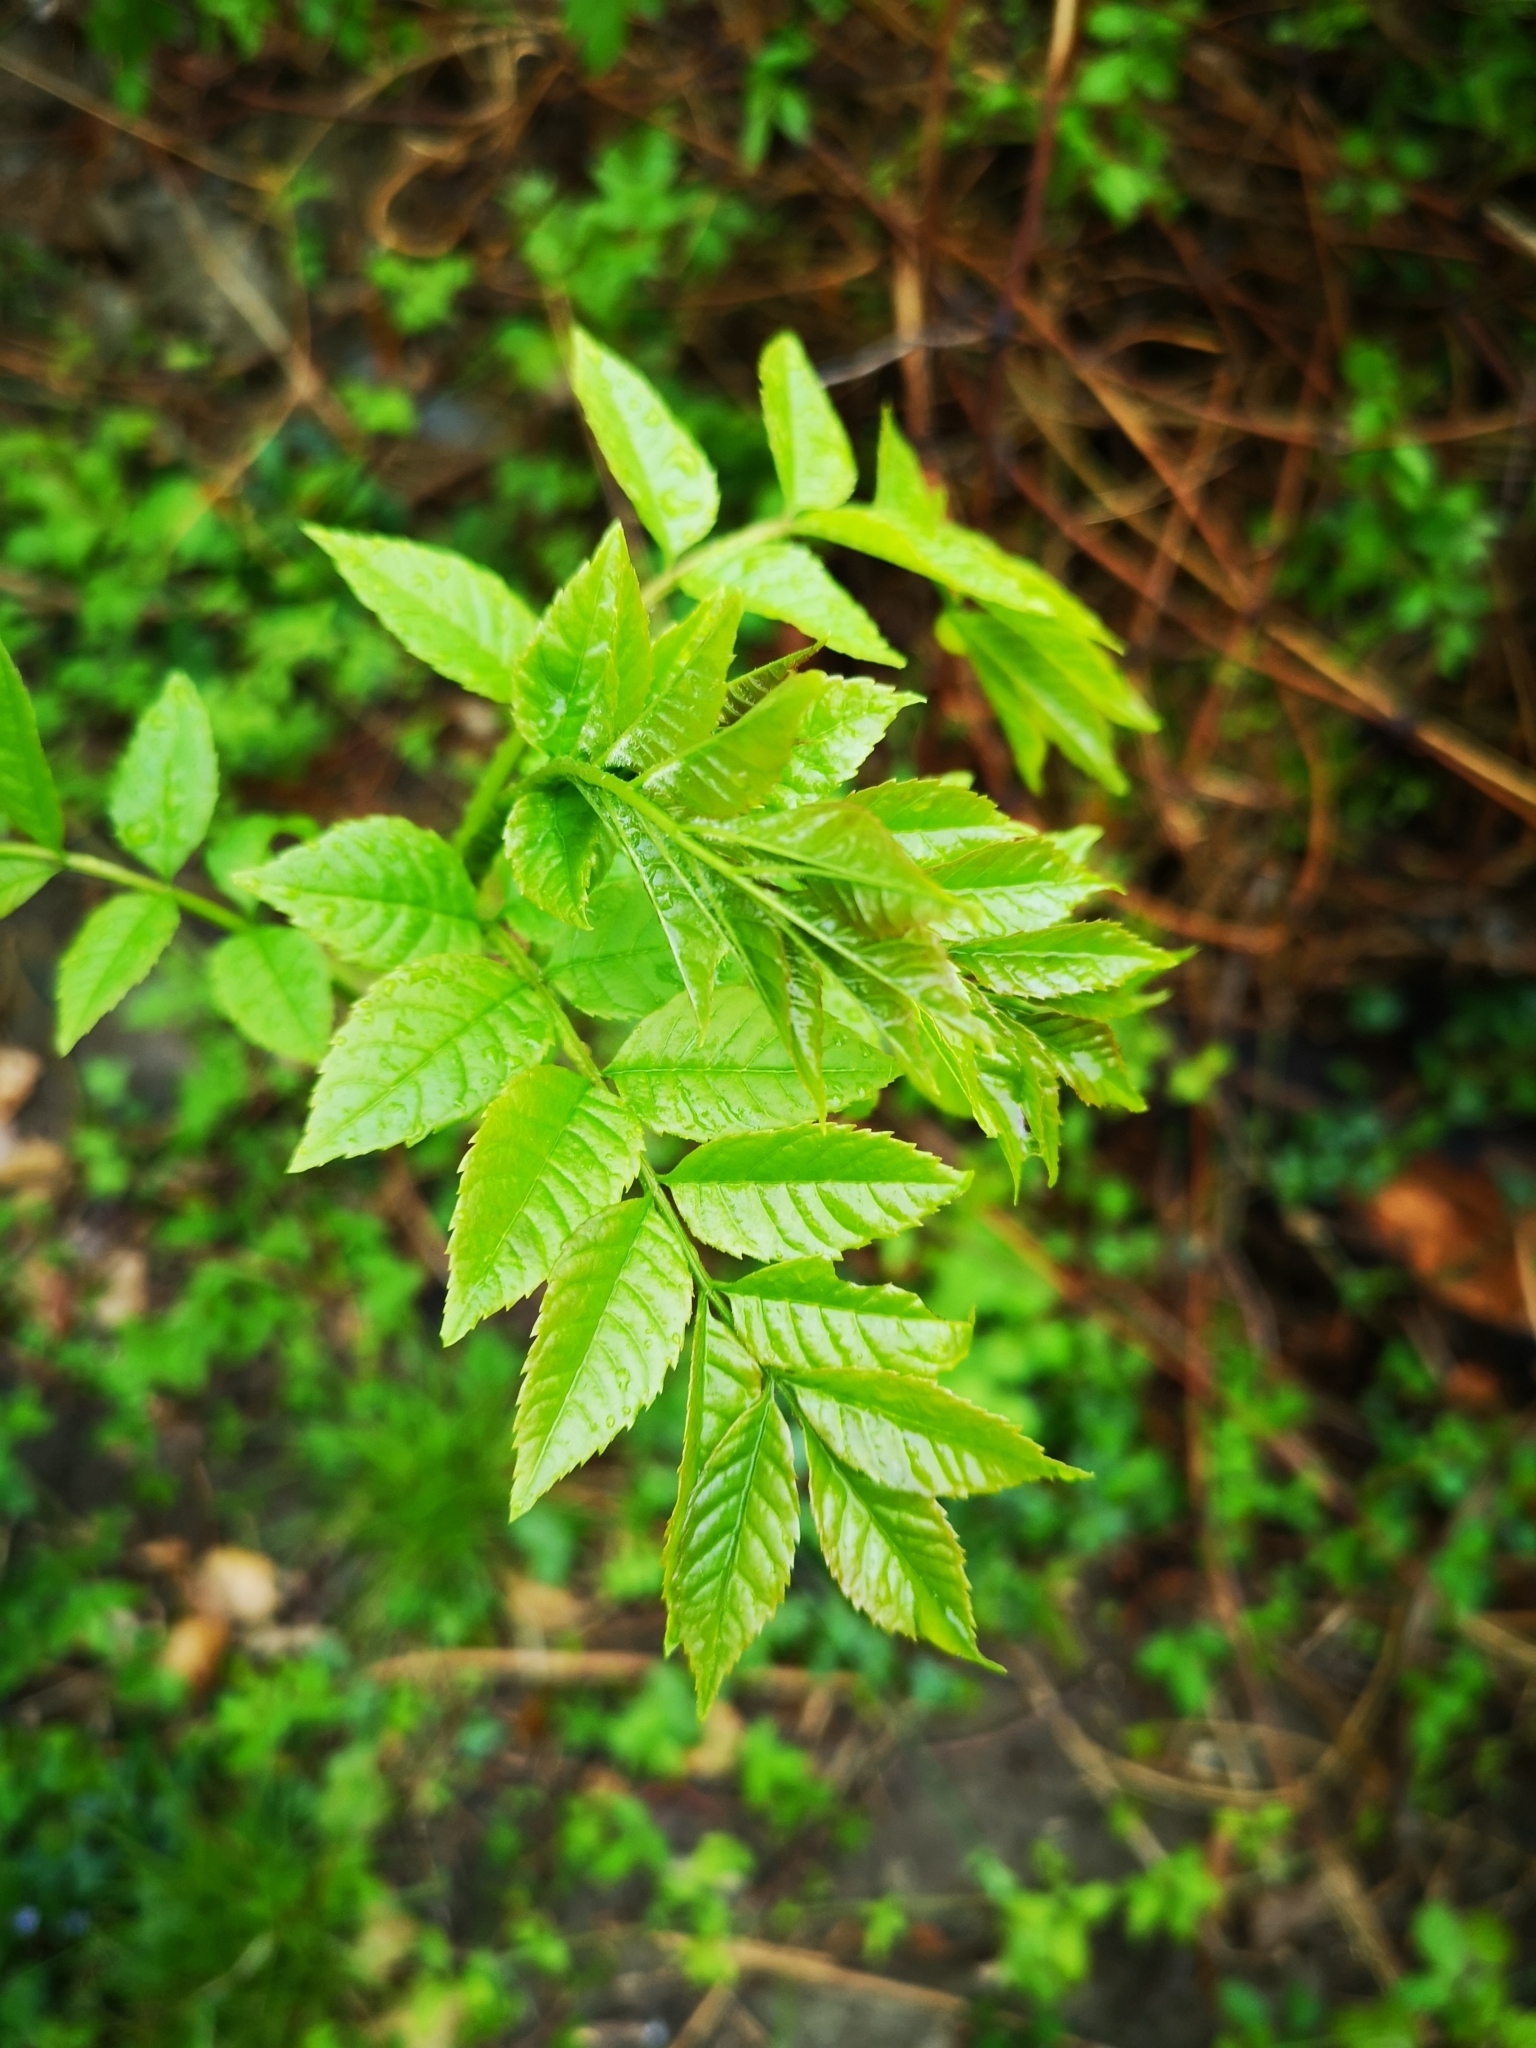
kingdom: Plantae
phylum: Tracheophyta
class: Magnoliopsida
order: Lamiales
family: Oleaceae
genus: Fraxinus
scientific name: Fraxinus excelsior
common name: European ash
